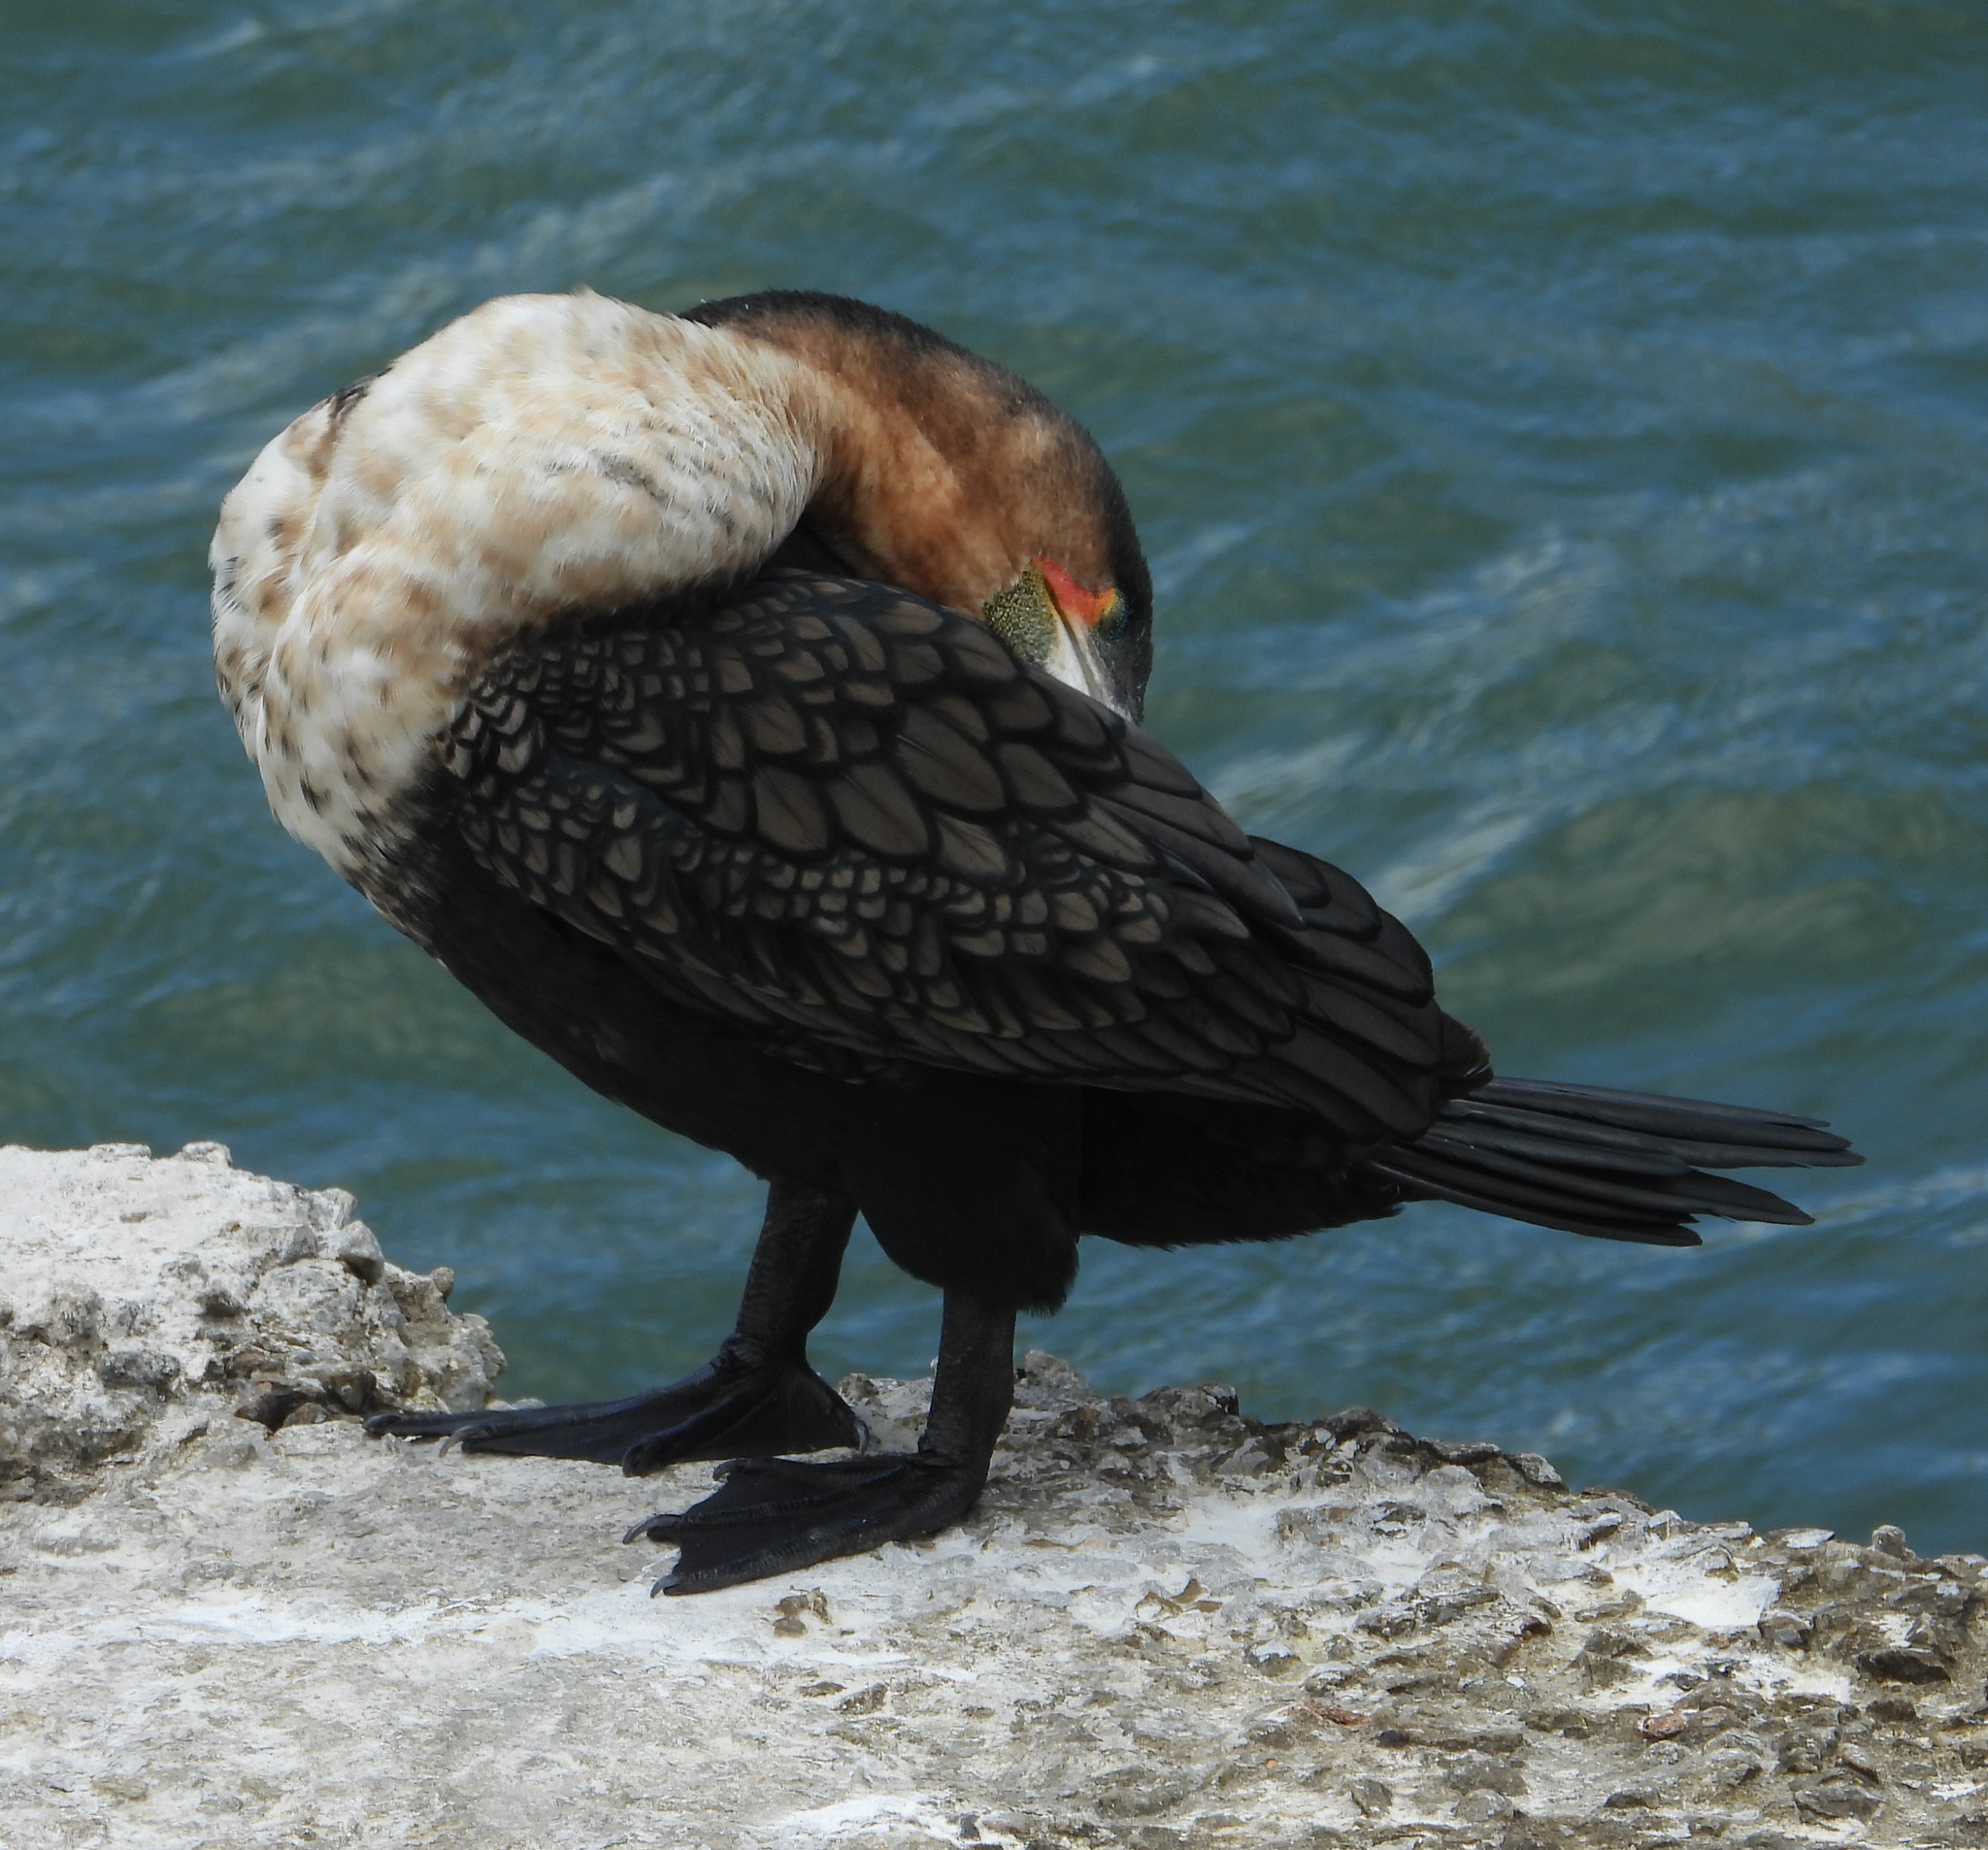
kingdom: Animalia
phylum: Chordata
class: Aves
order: Suliformes
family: Phalacrocoracidae
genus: Phalacrocorax
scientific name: Phalacrocorax carbo
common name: Great cormorant
